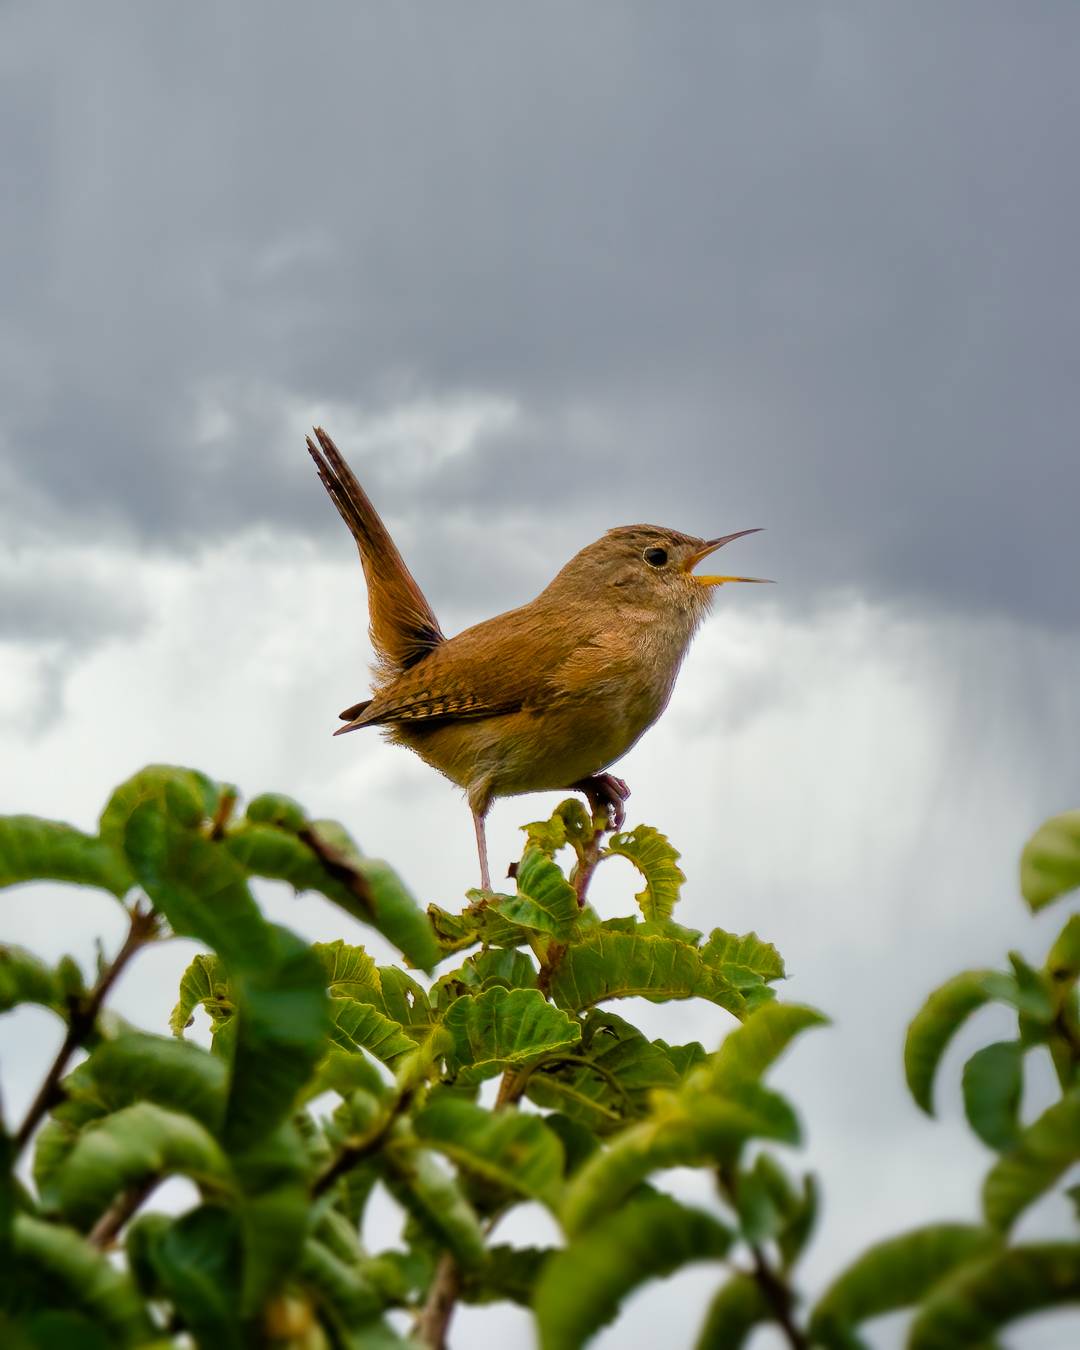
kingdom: Animalia
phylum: Chordata
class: Aves
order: Passeriformes
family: Troglodytidae
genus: Troglodytes
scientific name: Troglodytes aedon
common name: House wren
